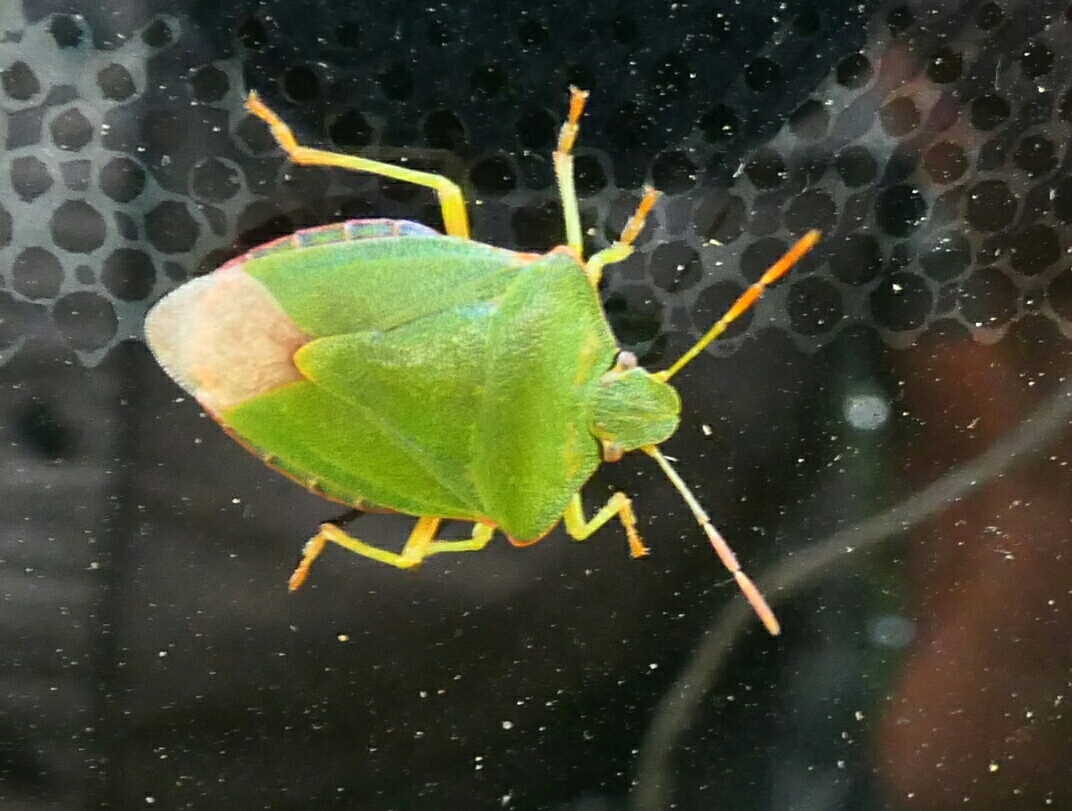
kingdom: Animalia
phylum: Arthropoda
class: Insecta
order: Hemiptera
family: Pentatomidae
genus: Palomena
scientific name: Palomena prasina
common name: Green shieldbug
